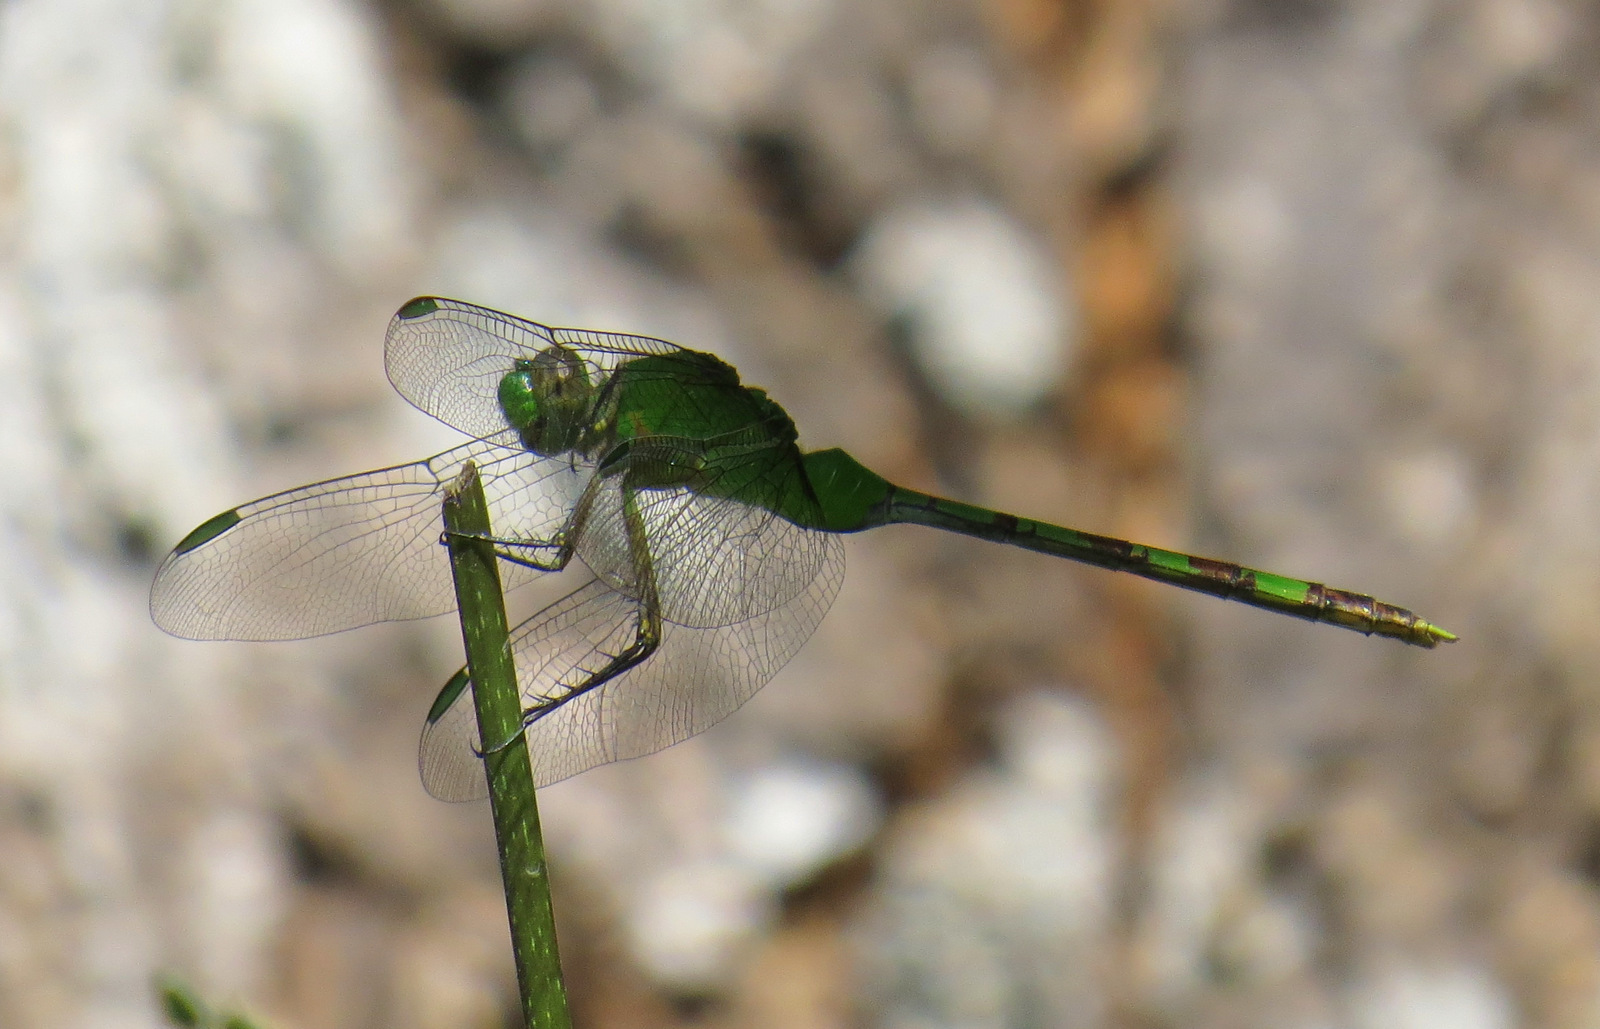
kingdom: Animalia
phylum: Arthropoda
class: Insecta
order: Odonata
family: Libellulidae
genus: Erythemis
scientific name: Erythemis vesiculosa
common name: Great pondhawk
